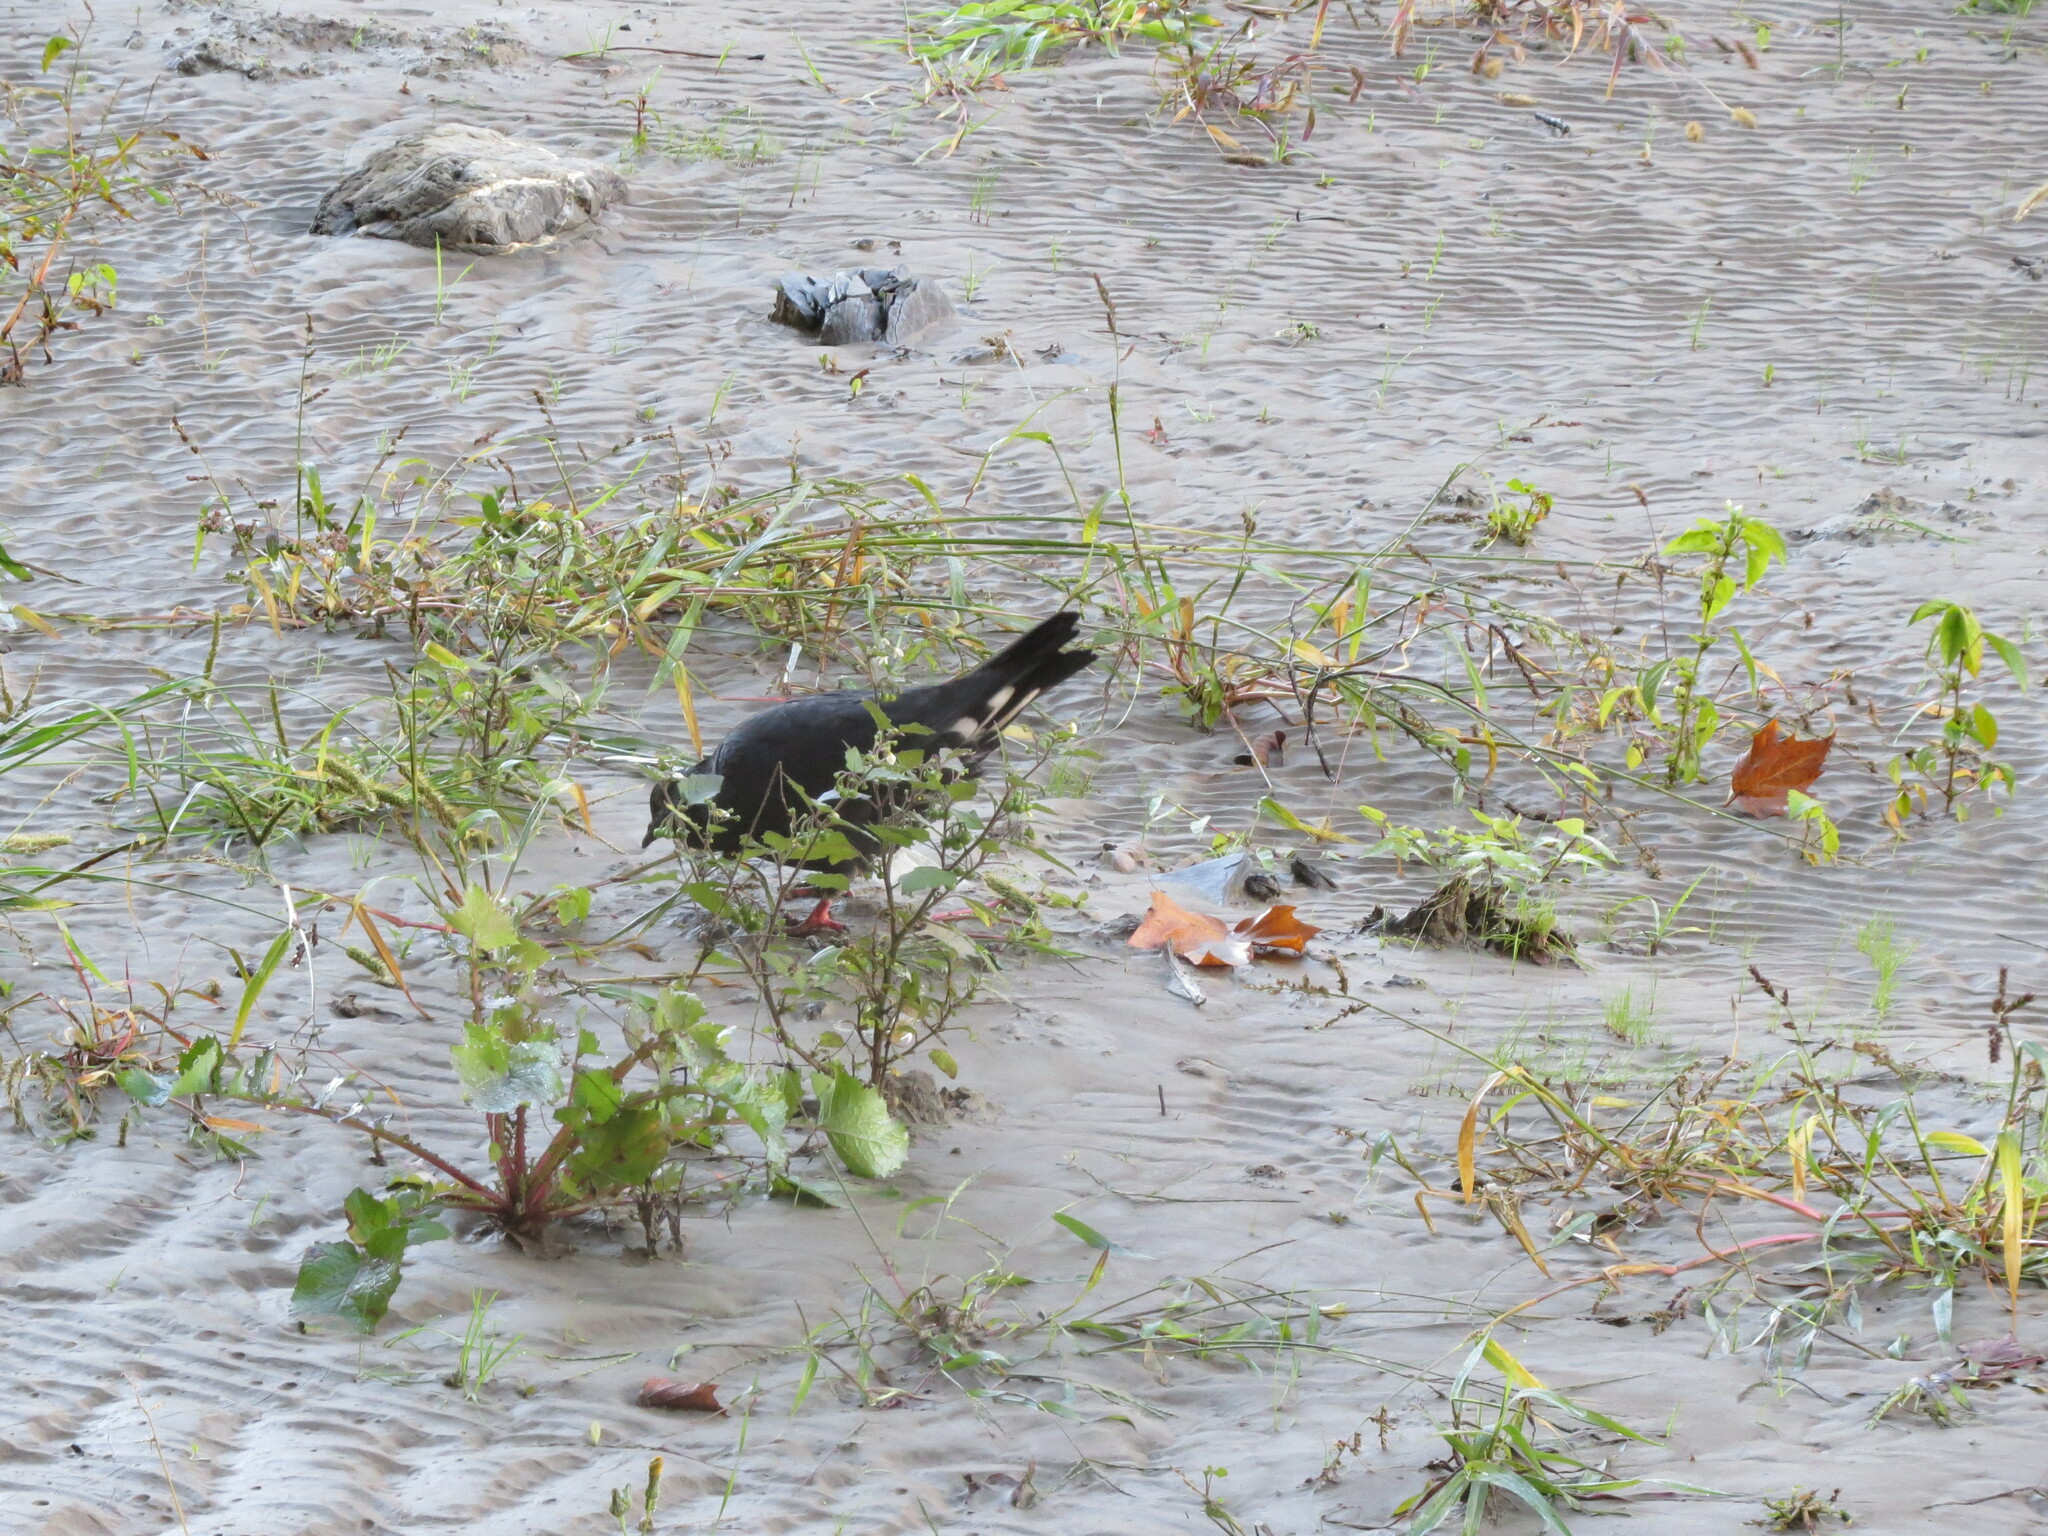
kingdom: Animalia
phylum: Chordata
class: Aves
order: Columbiformes
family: Columbidae
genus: Columba
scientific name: Columba livia
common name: Rock pigeon
